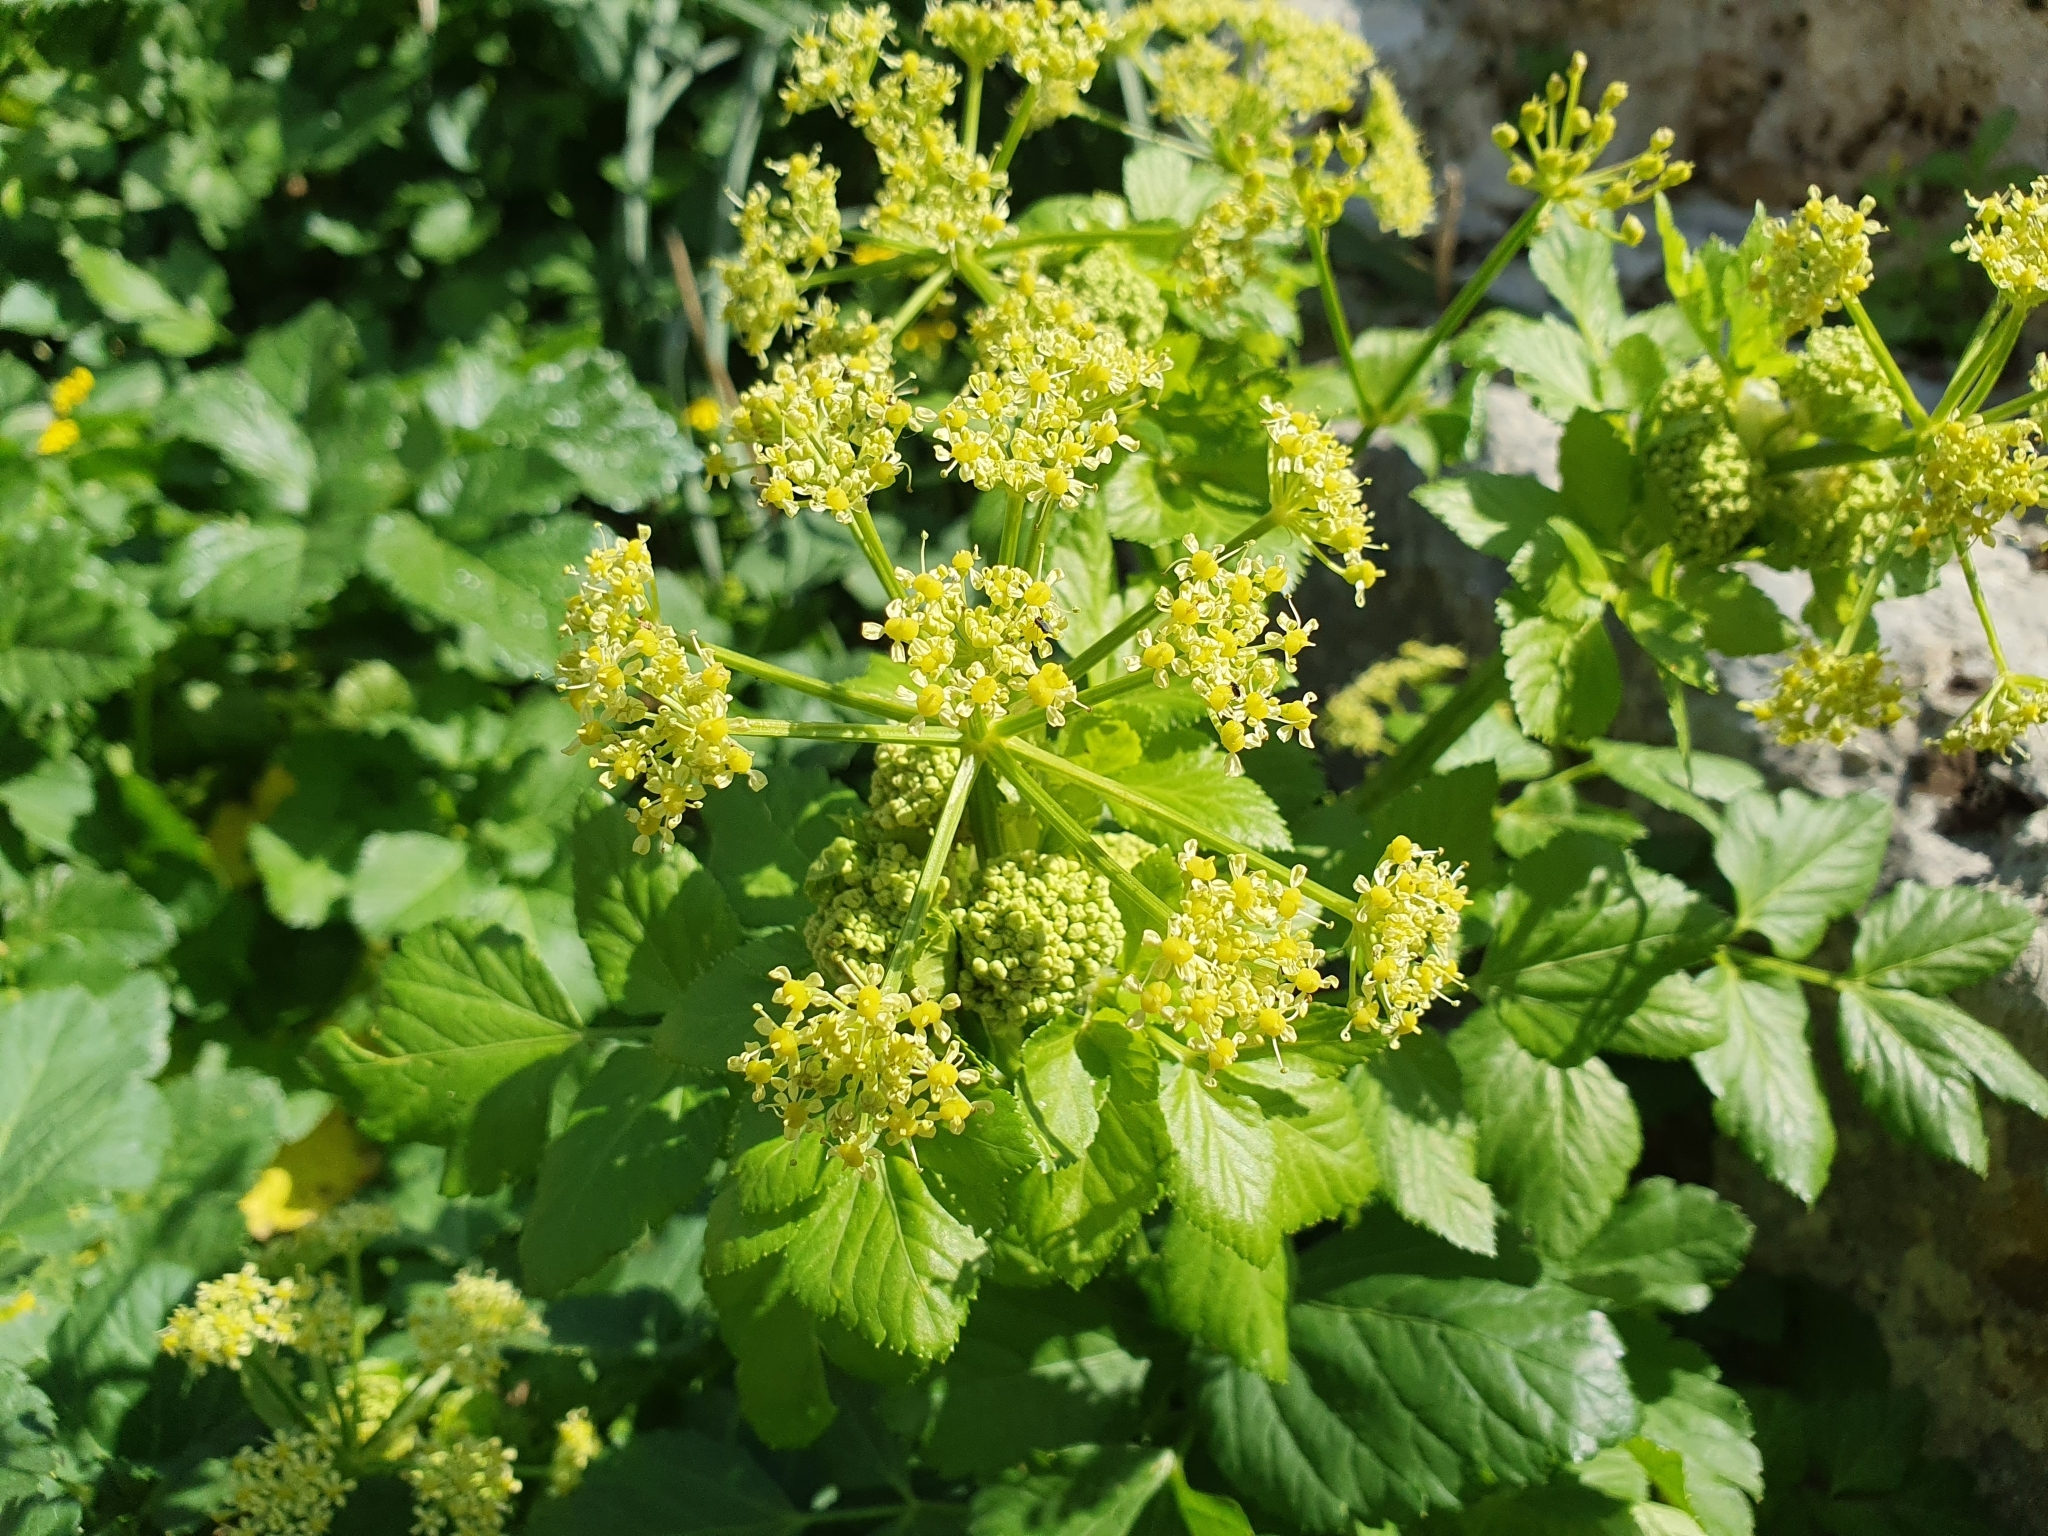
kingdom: Plantae
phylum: Tracheophyta
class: Magnoliopsida
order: Apiales
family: Apiaceae
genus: Smyrnium
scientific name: Smyrnium olusatrum
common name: Alexanders
